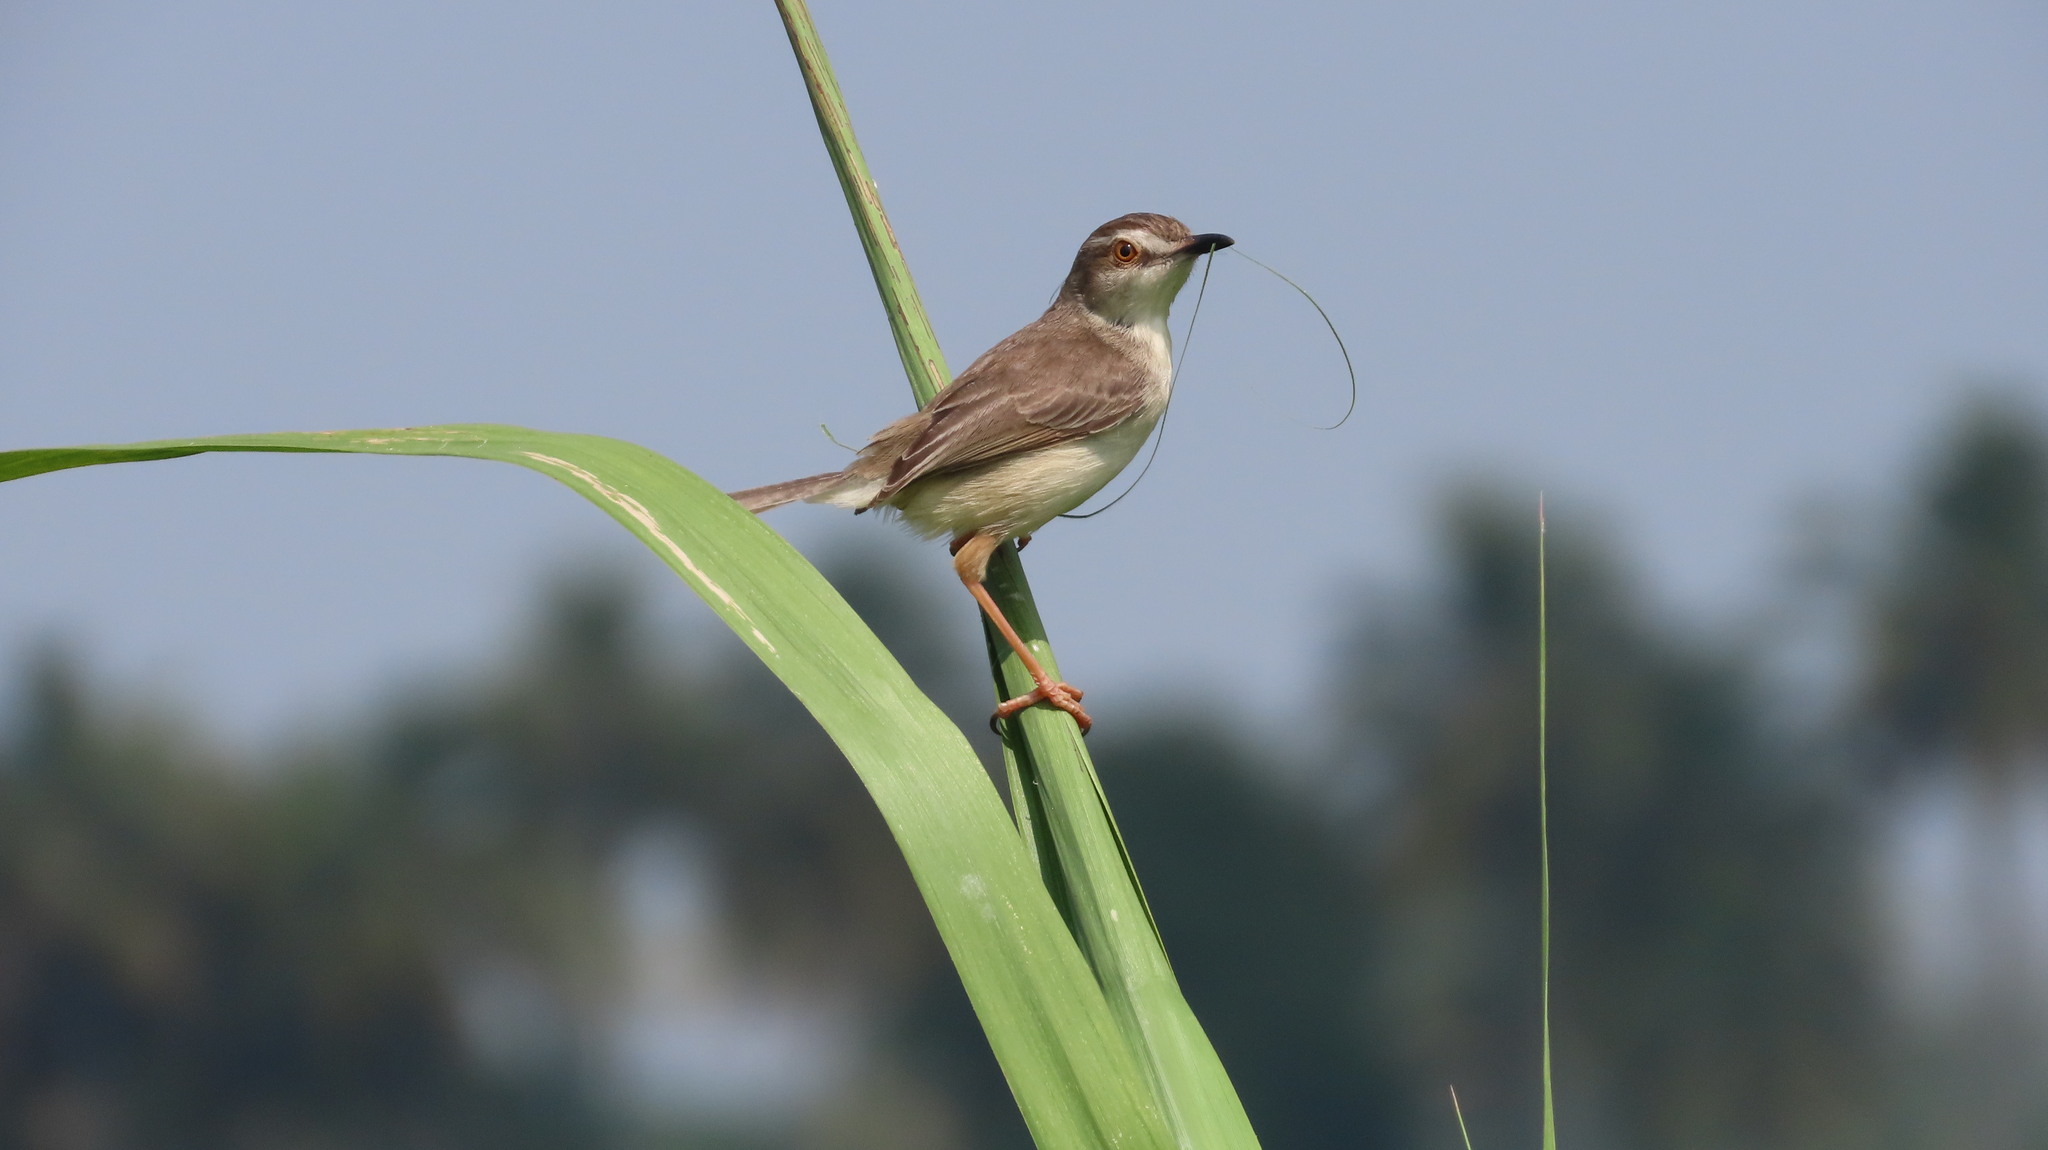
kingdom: Animalia
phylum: Chordata
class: Aves
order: Passeriformes
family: Cisticolidae
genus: Prinia
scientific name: Prinia inornata
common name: Plain prinia
